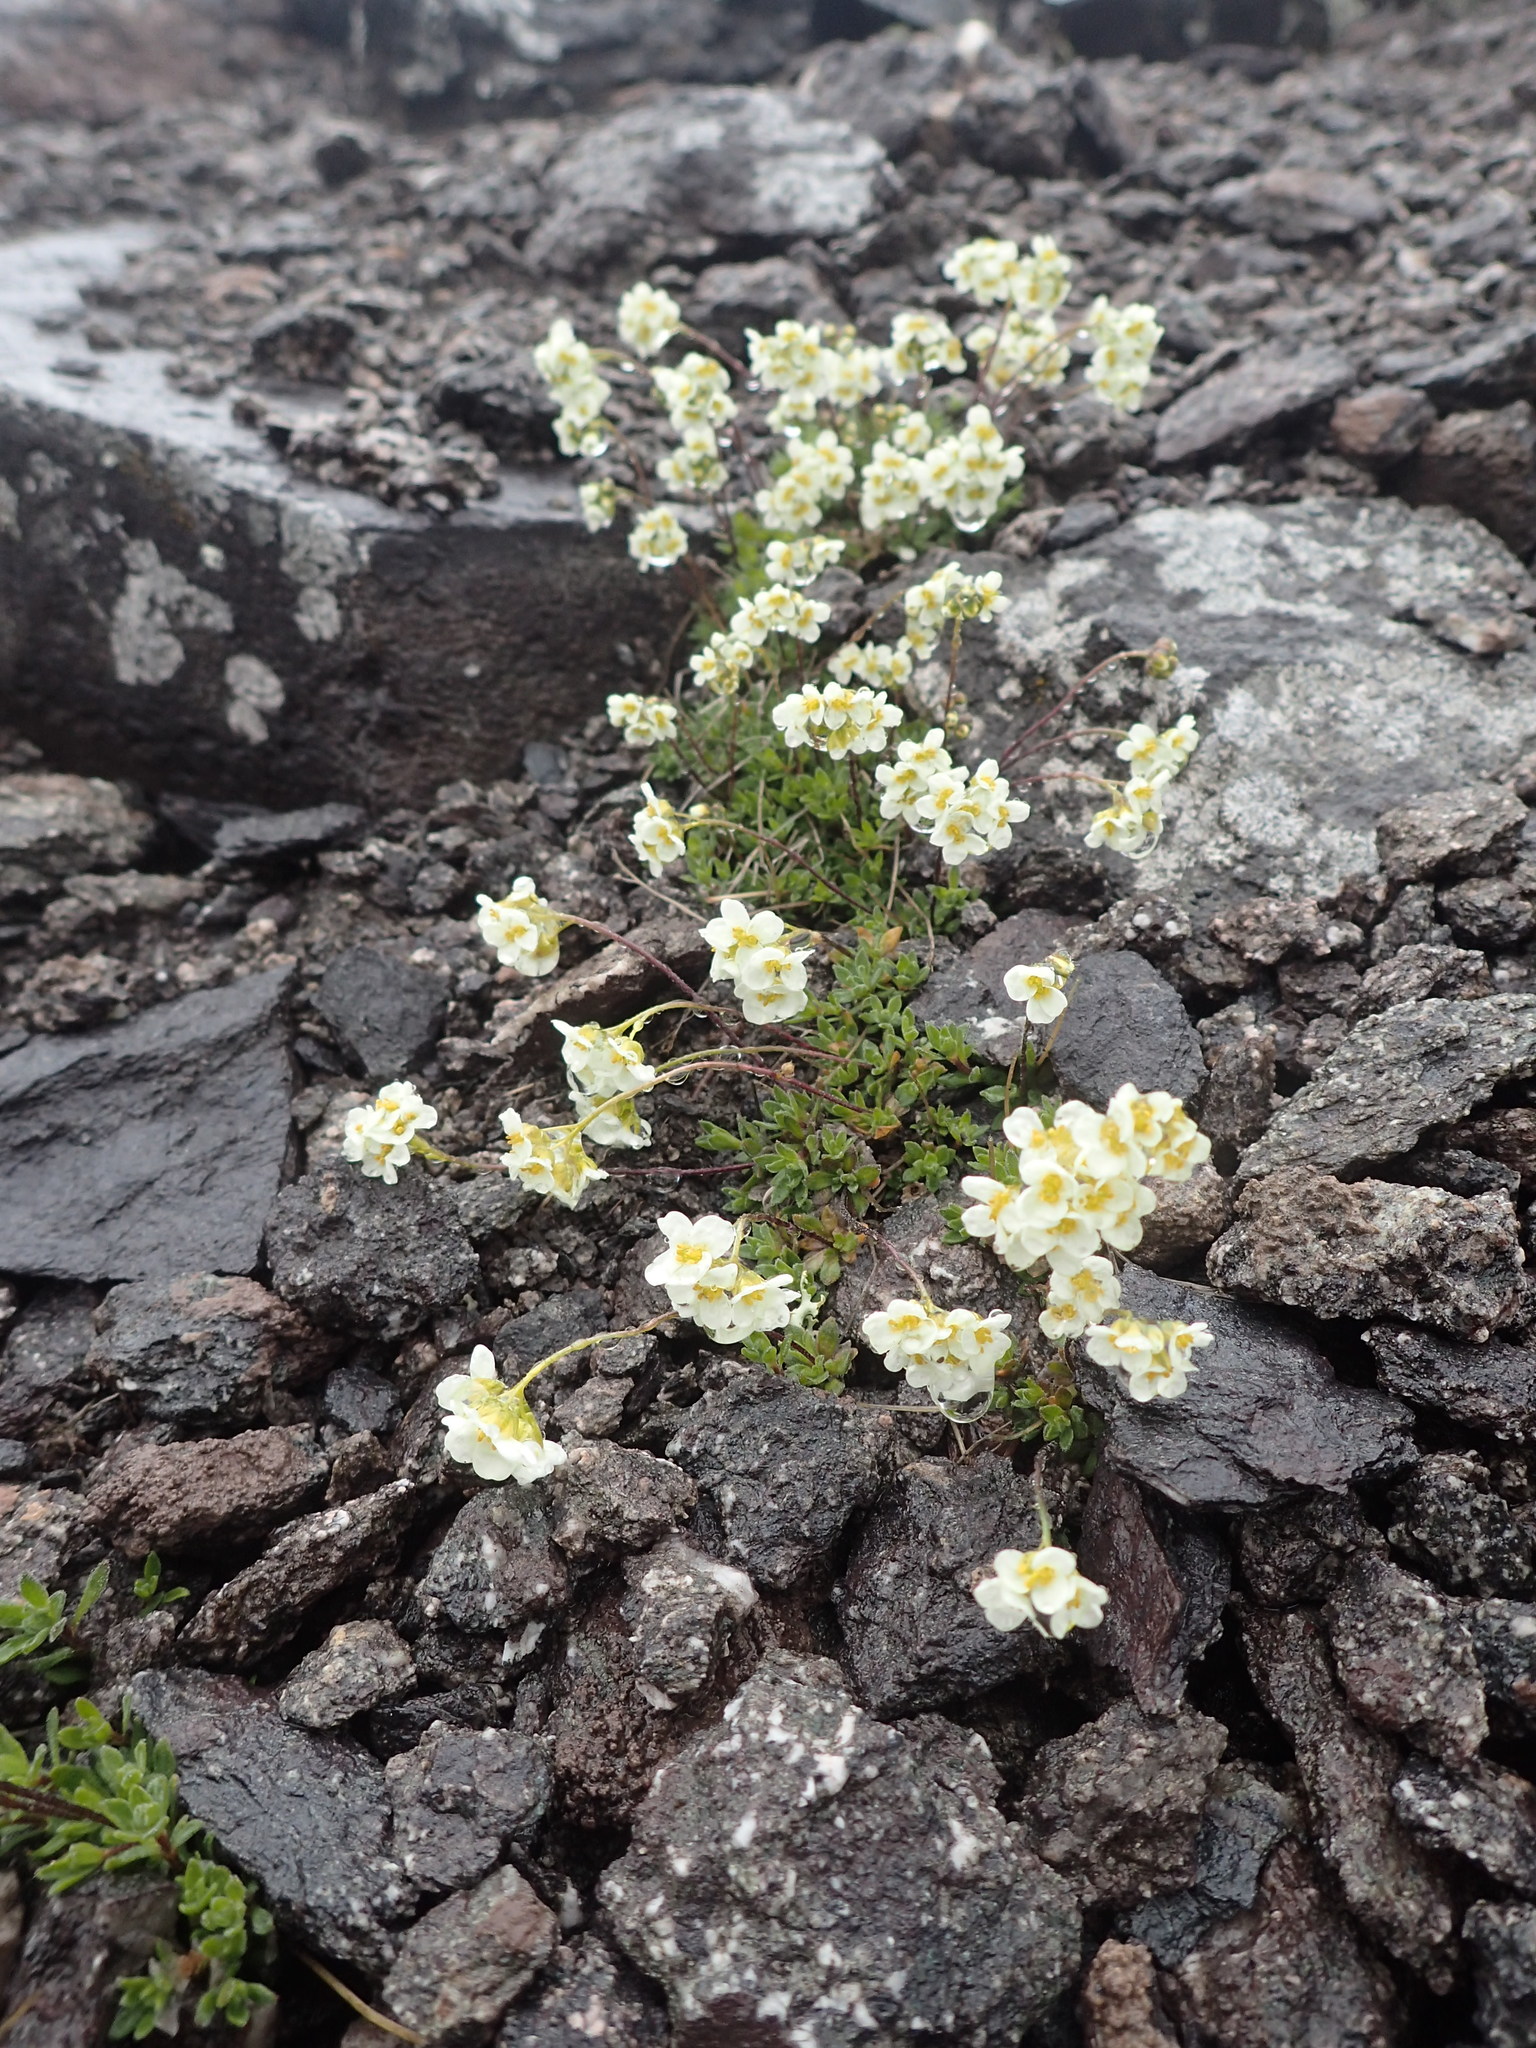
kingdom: Plantae
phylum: Tracheophyta
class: Magnoliopsida
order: Brassicales
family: Brassicaceae
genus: Draba
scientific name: Draba palanderiana
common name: Palander's draba
